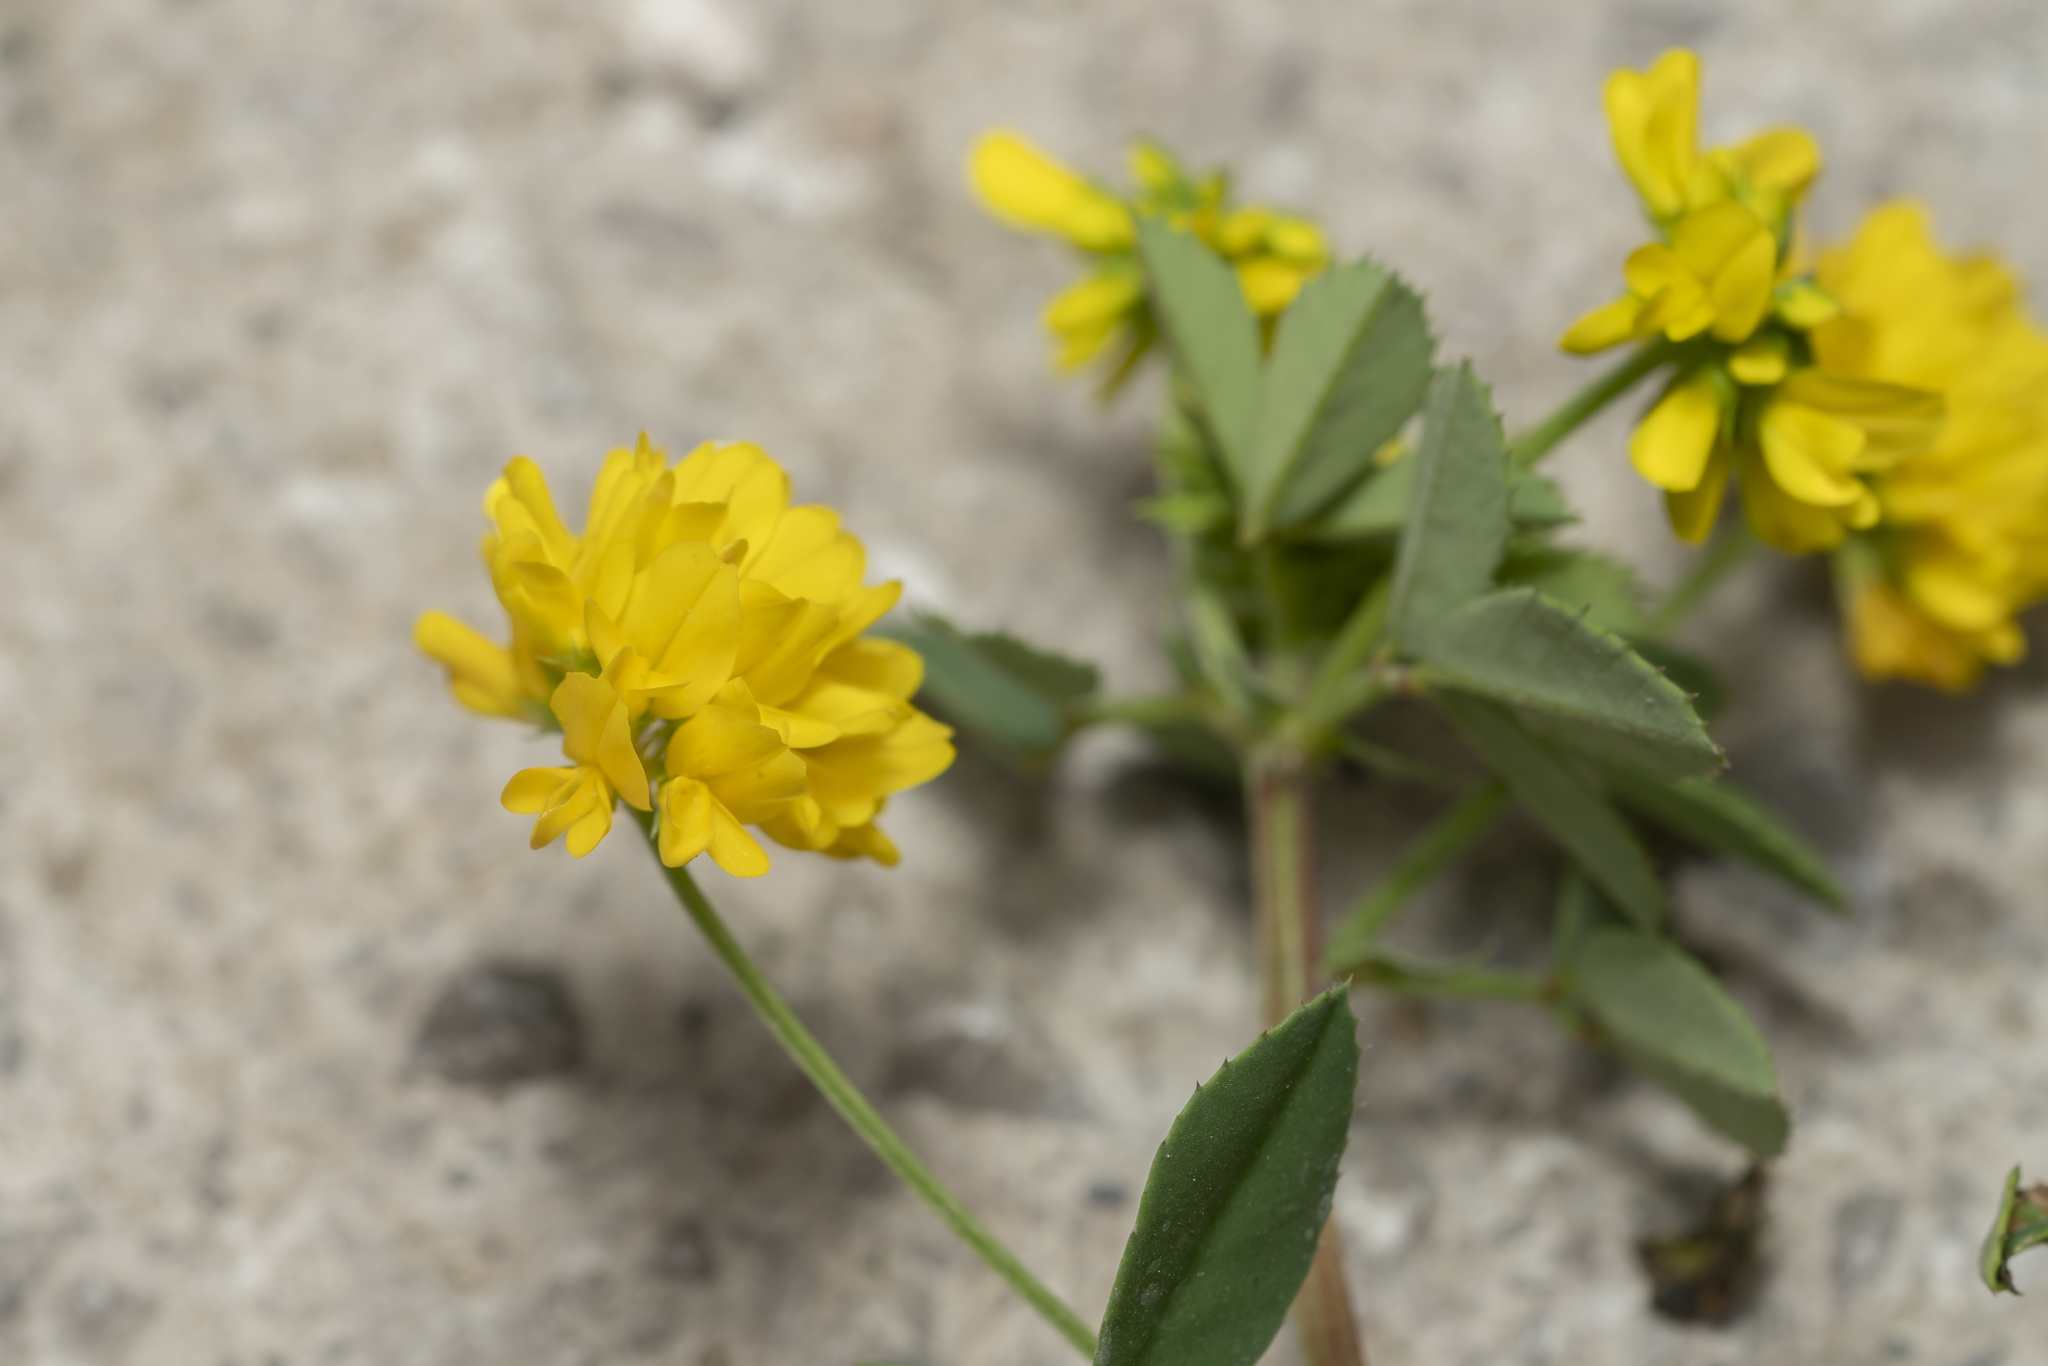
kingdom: Plantae
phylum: Tracheophyta
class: Magnoliopsida
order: Fabales
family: Fabaceae
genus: Trigonella
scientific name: Trigonella balansae
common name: Sickle-fruited fenugreek
